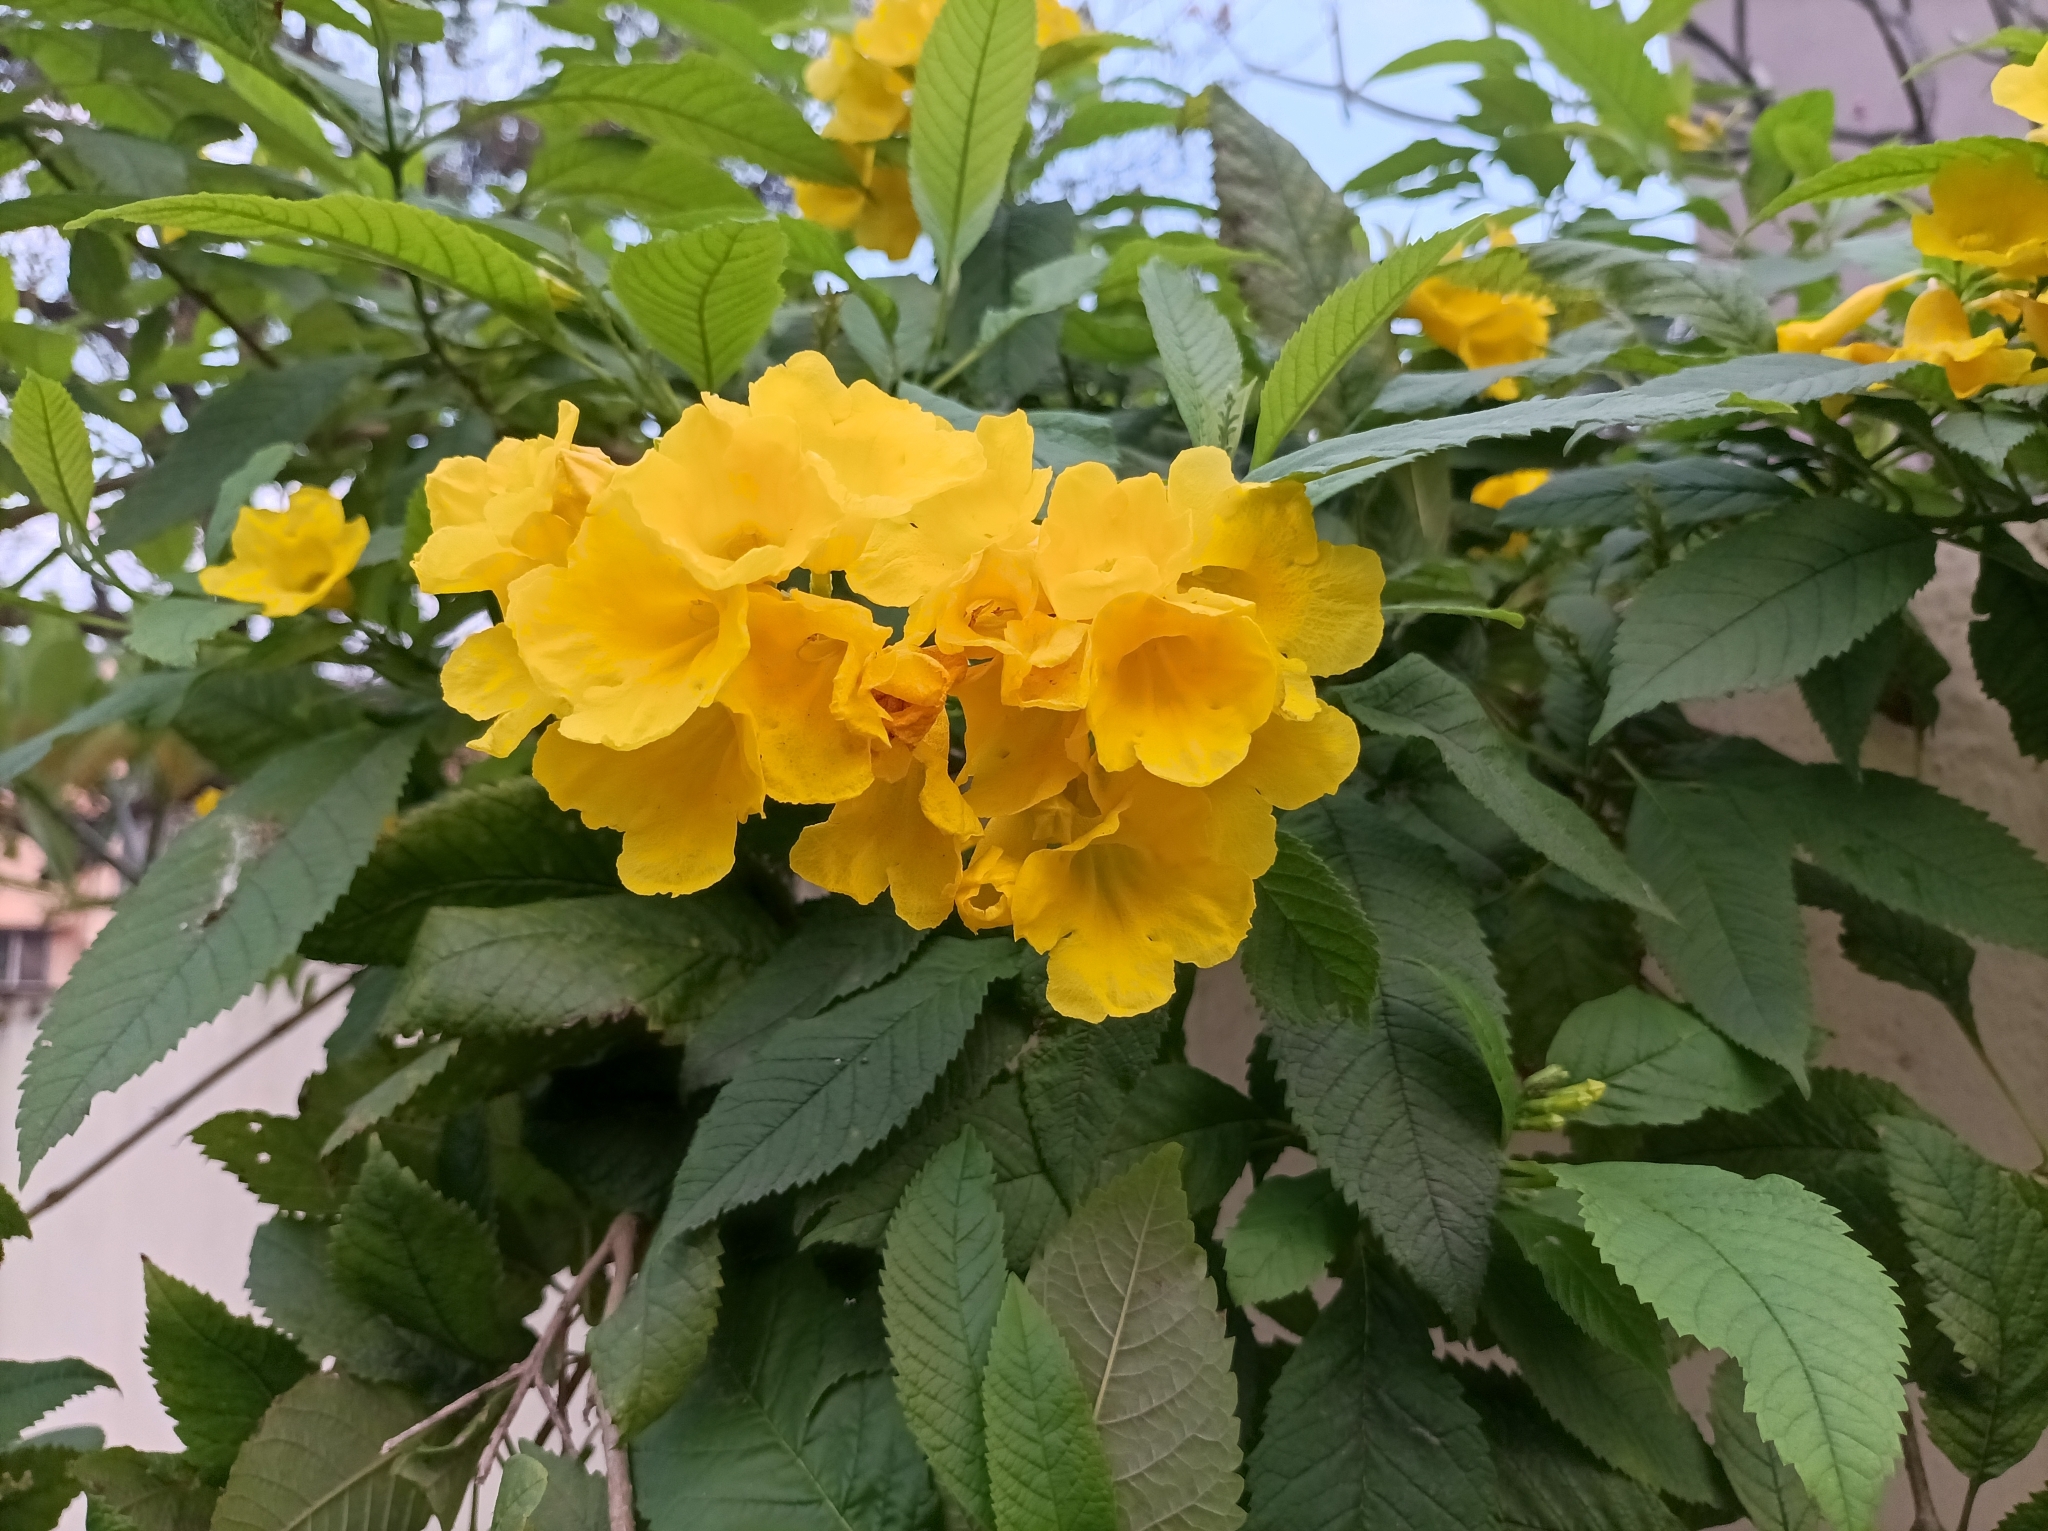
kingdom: Plantae
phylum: Tracheophyta
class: Magnoliopsida
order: Lamiales
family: Bignoniaceae
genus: Tecoma
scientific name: Tecoma stans
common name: Yellow trumpetbush
